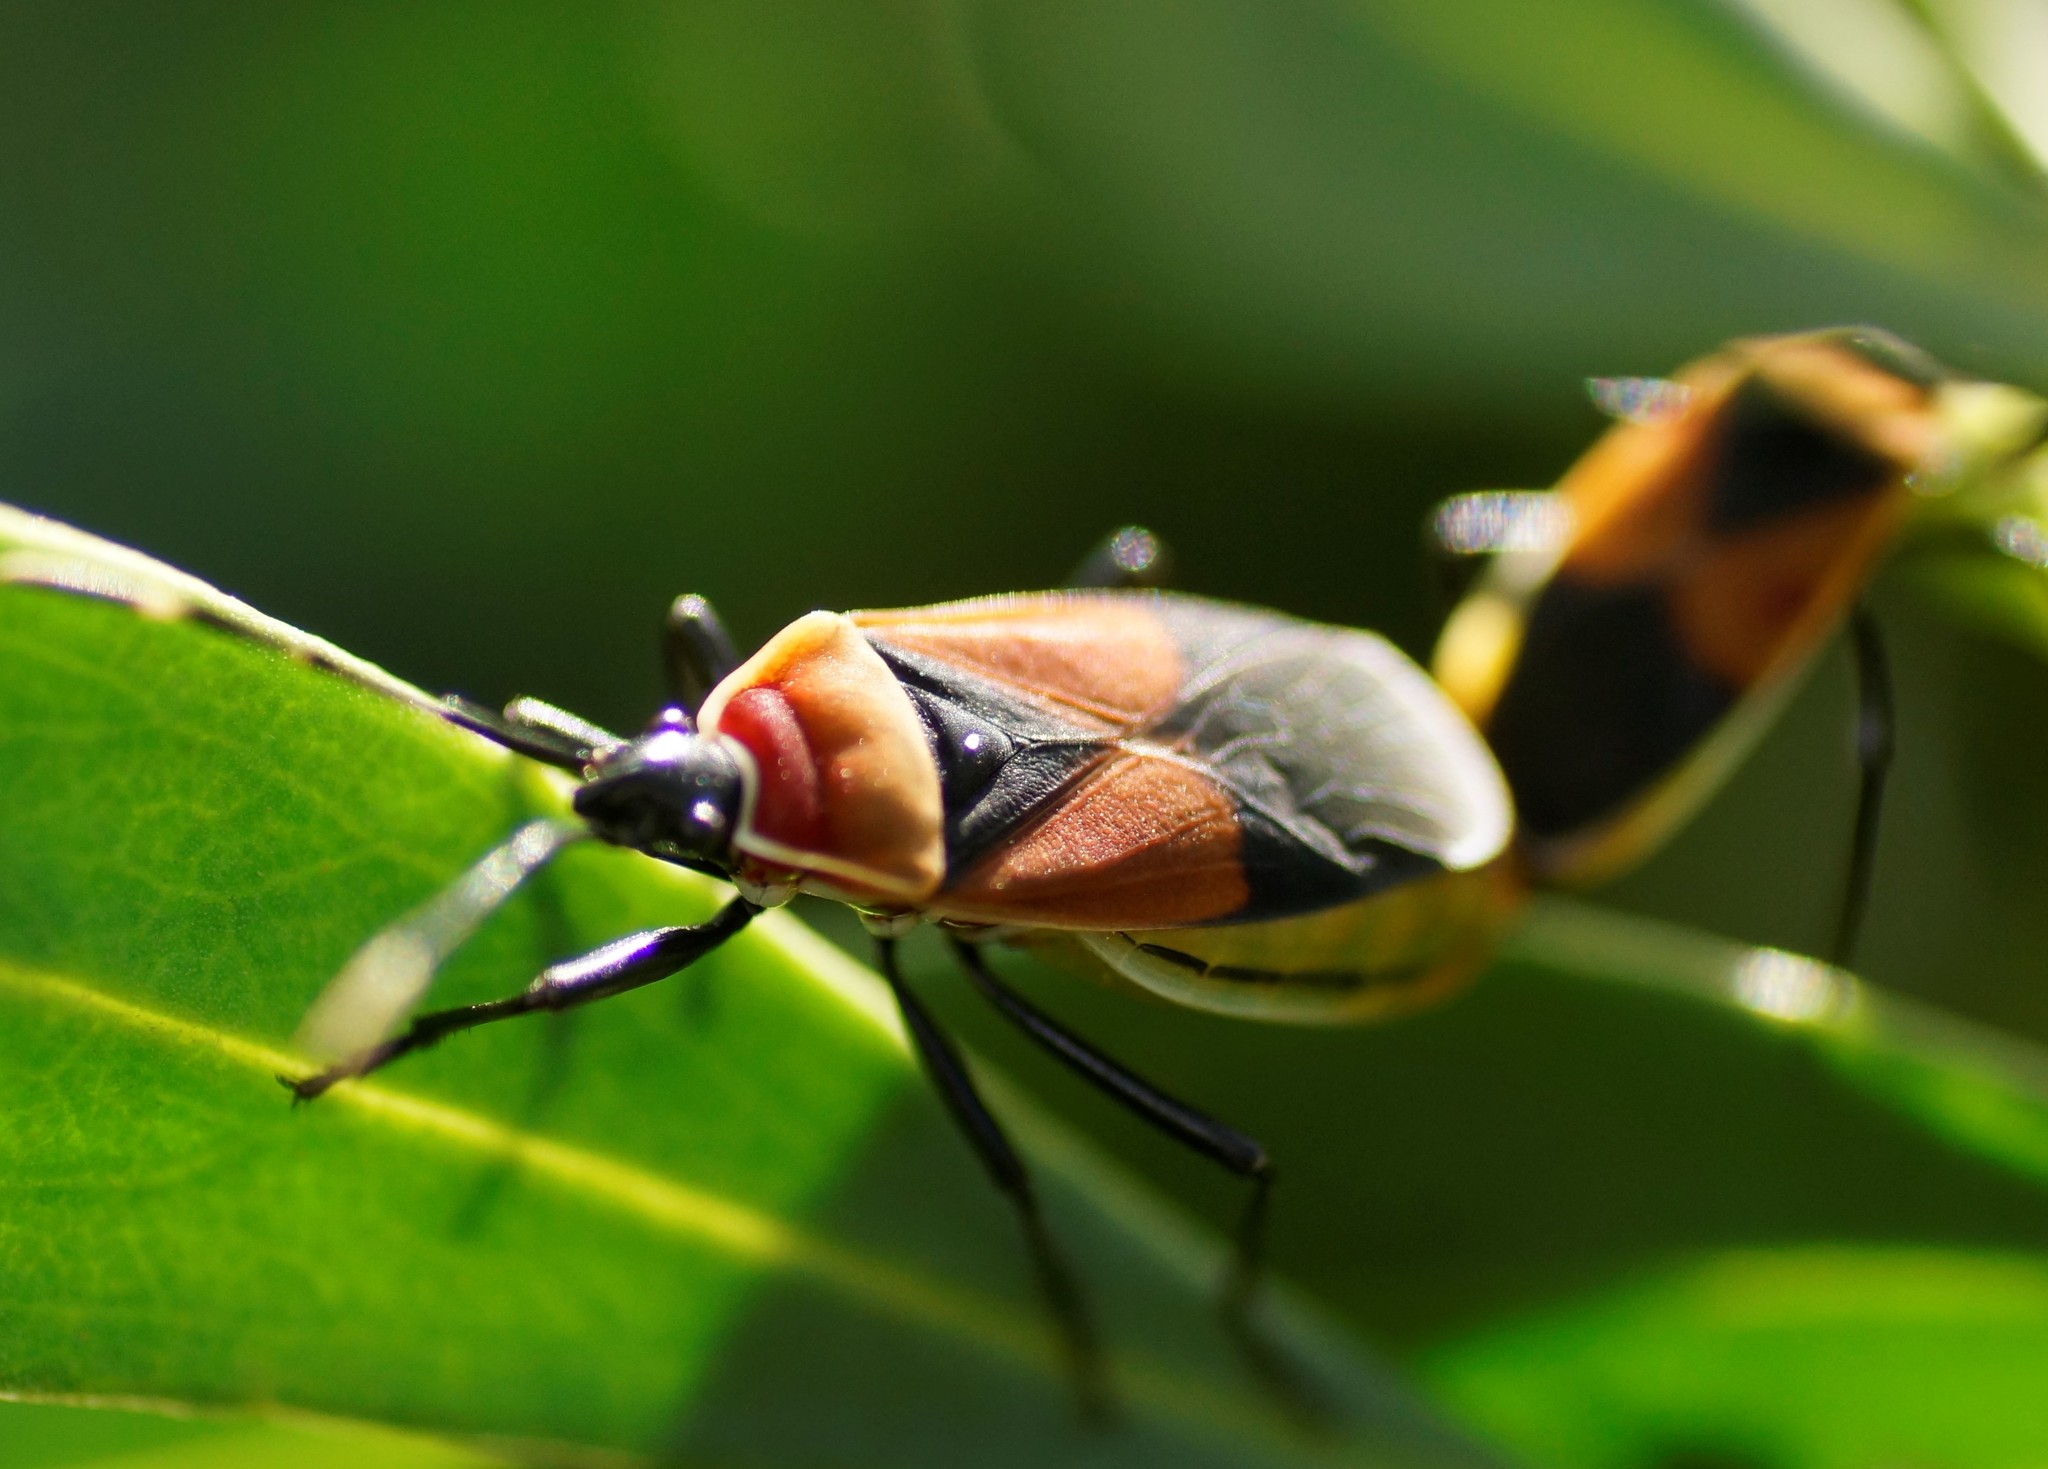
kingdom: Animalia
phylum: Arthropoda
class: Insecta
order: Hemiptera
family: Pyrrhocoridae
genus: Dindymus
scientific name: Dindymus
